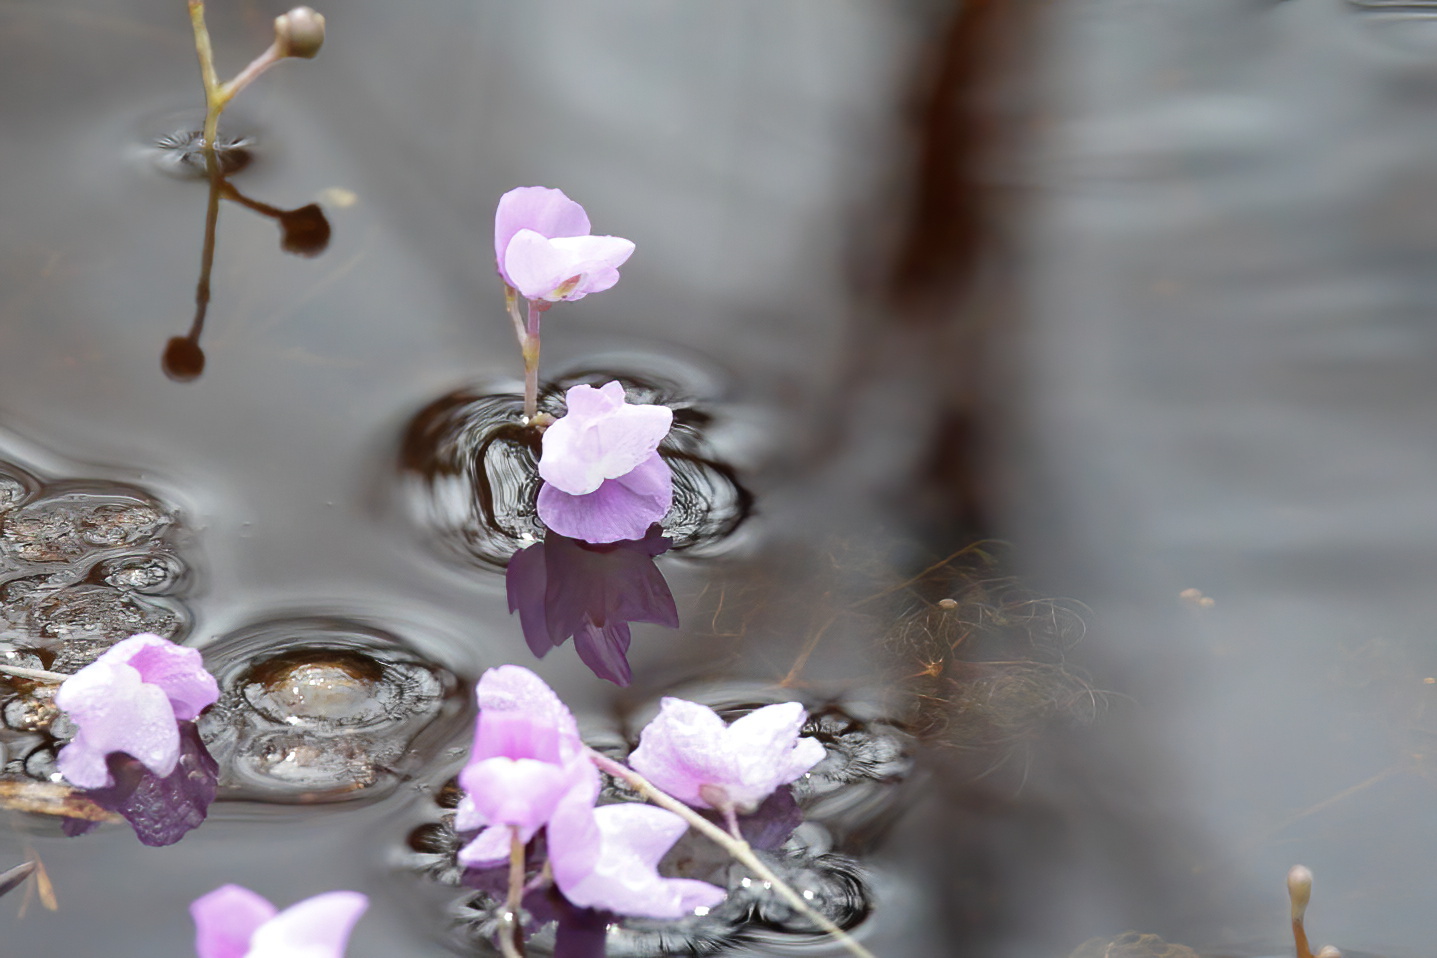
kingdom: Plantae
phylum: Tracheophyta
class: Magnoliopsida
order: Lamiales
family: Lentibulariaceae
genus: Utricularia
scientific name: Utricularia purpurea
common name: Eastern purple bladderwort
